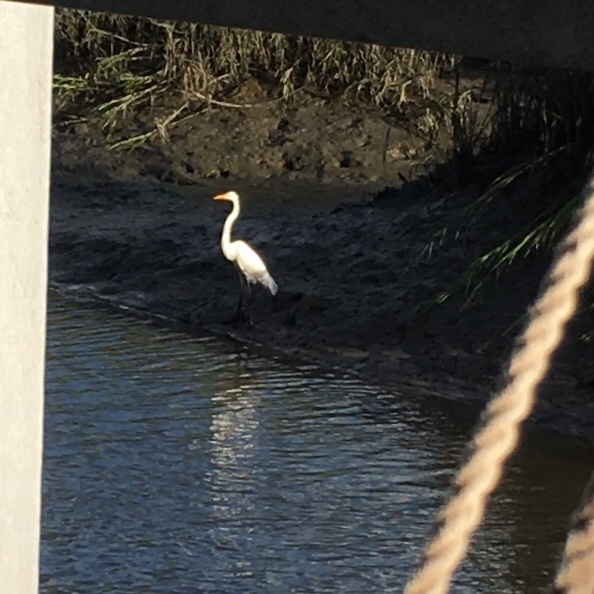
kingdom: Animalia
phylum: Chordata
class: Aves
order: Pelecaniformes
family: Ardeidae
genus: Ardea
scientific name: Ardea alba
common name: Great egret
